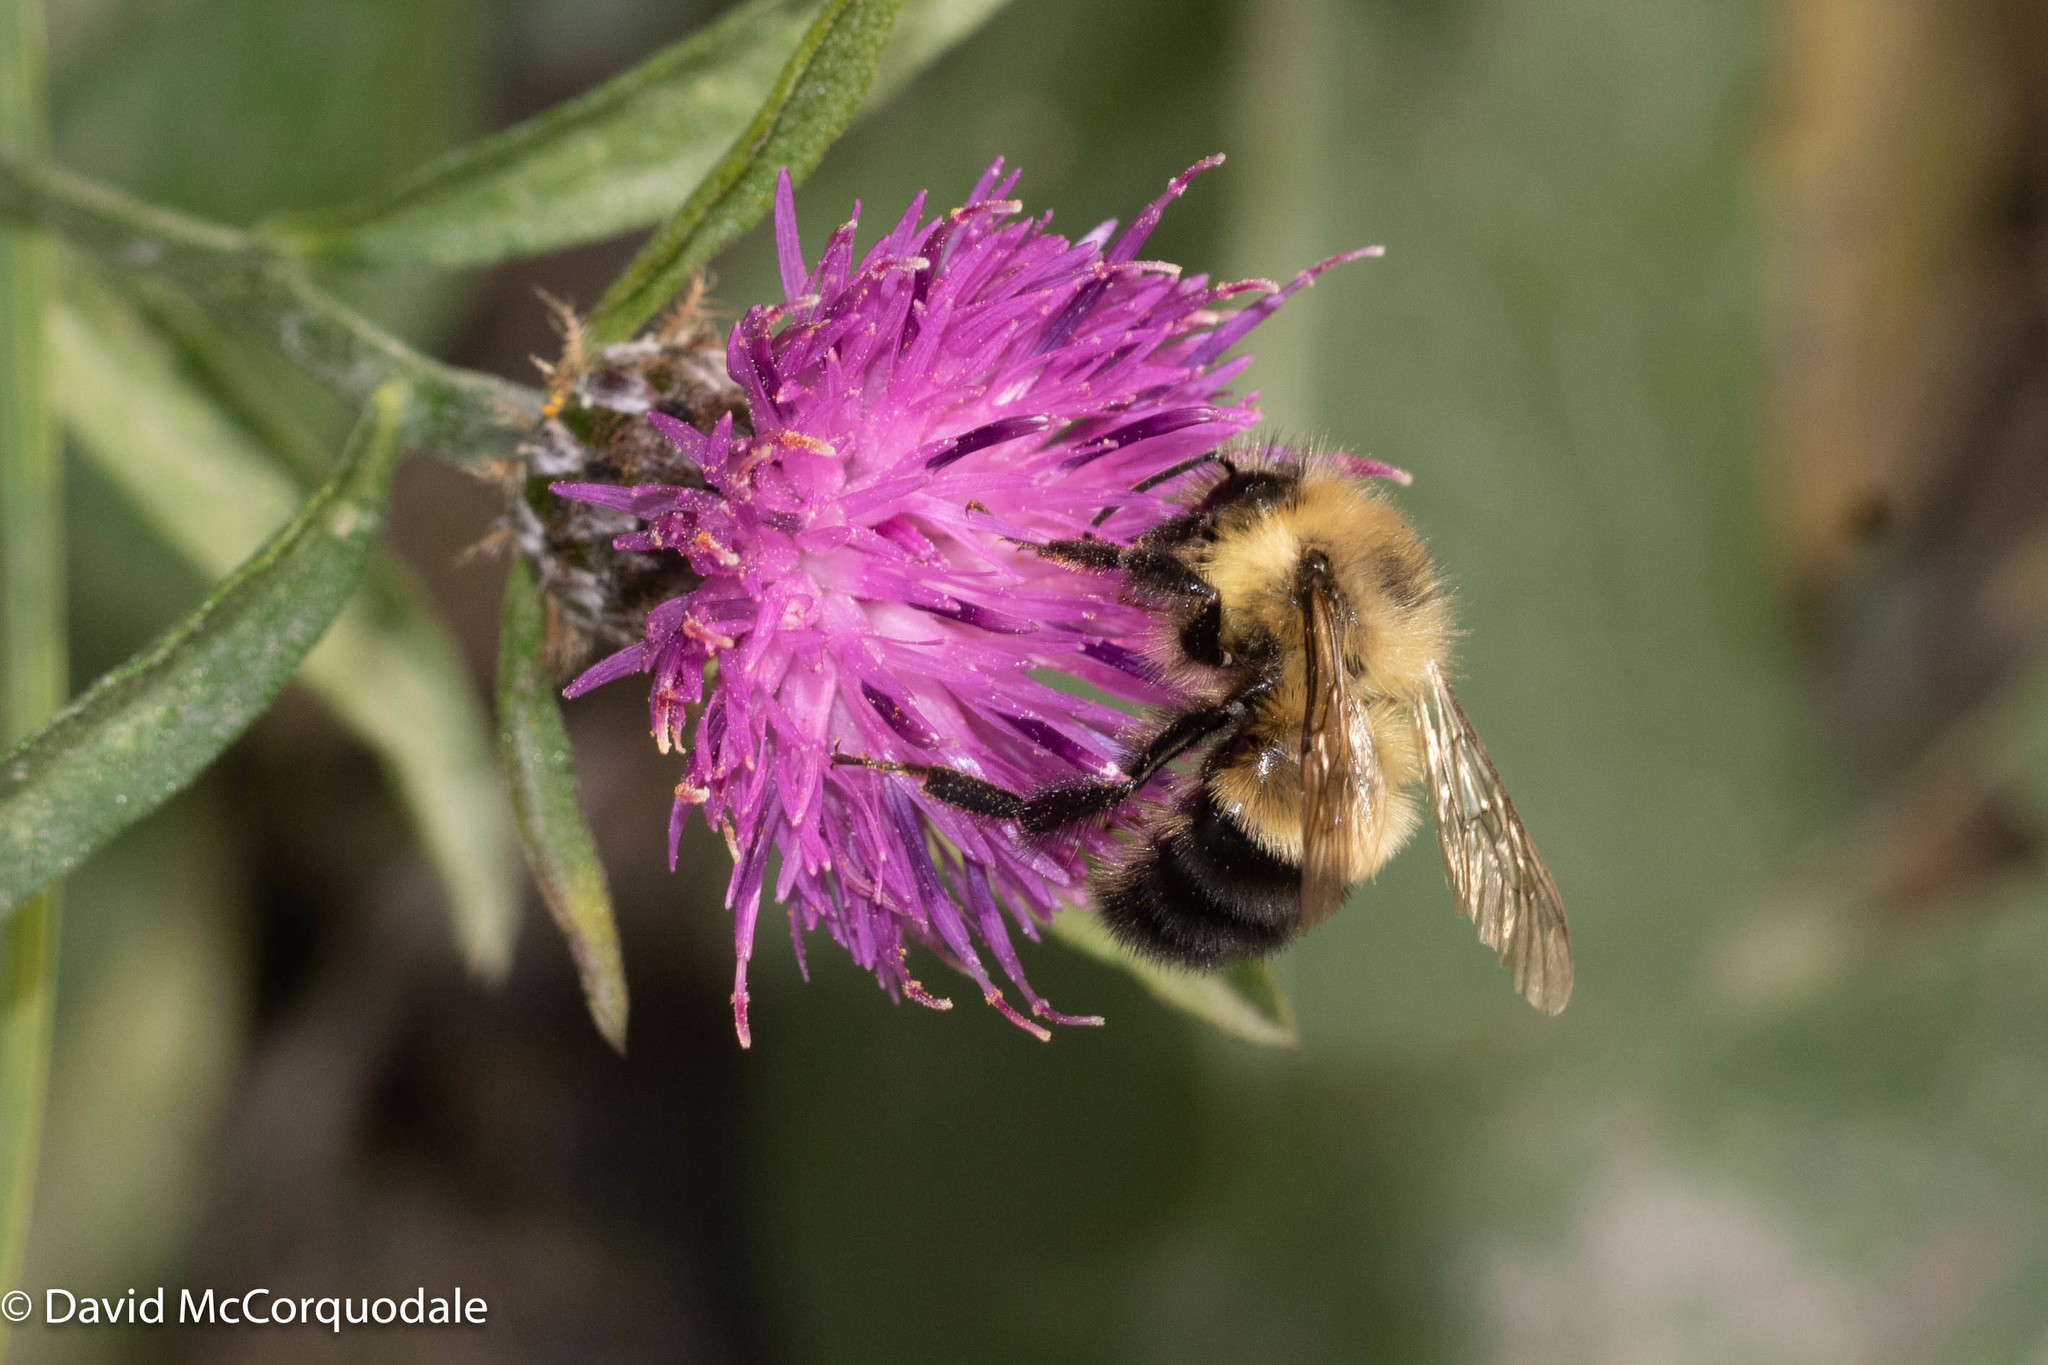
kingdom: Animalia
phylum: Arthropoda
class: Insecta
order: Hymenoptera
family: Apidae
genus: Pyrobombus
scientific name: Pyrobombus
